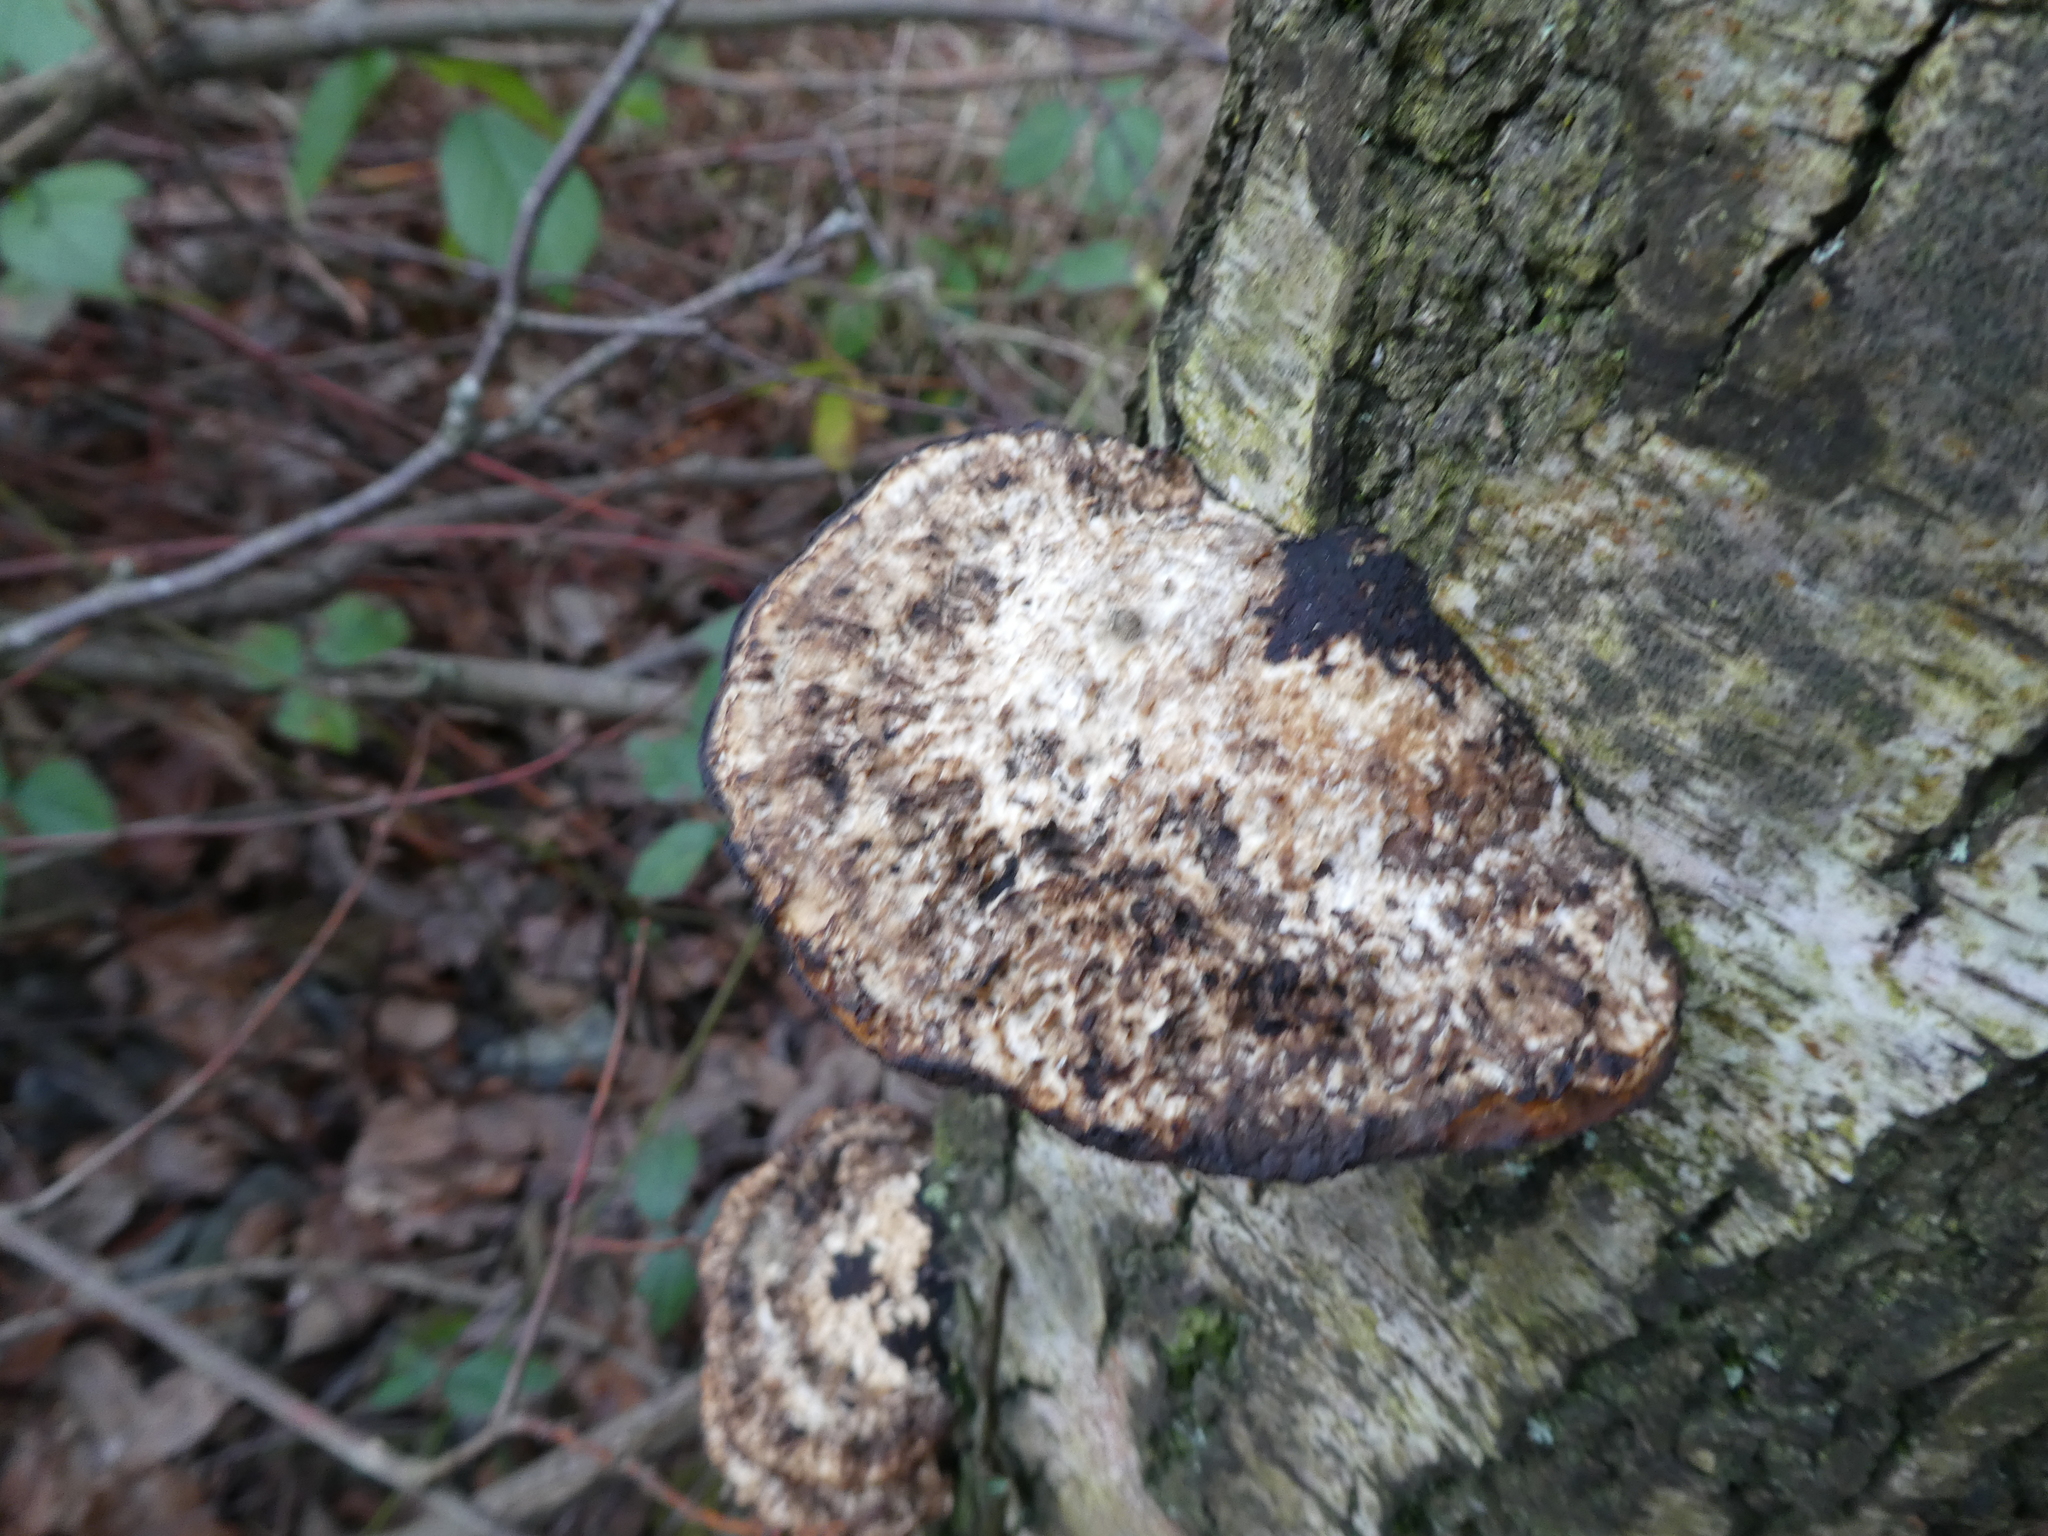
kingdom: Fungi
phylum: Basidiomycota
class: Agaricomycetes
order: Polyporales
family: Polyporaceae
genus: Daedaleopsis
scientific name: Daedaleopsis confragosa
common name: Blushing bracket
